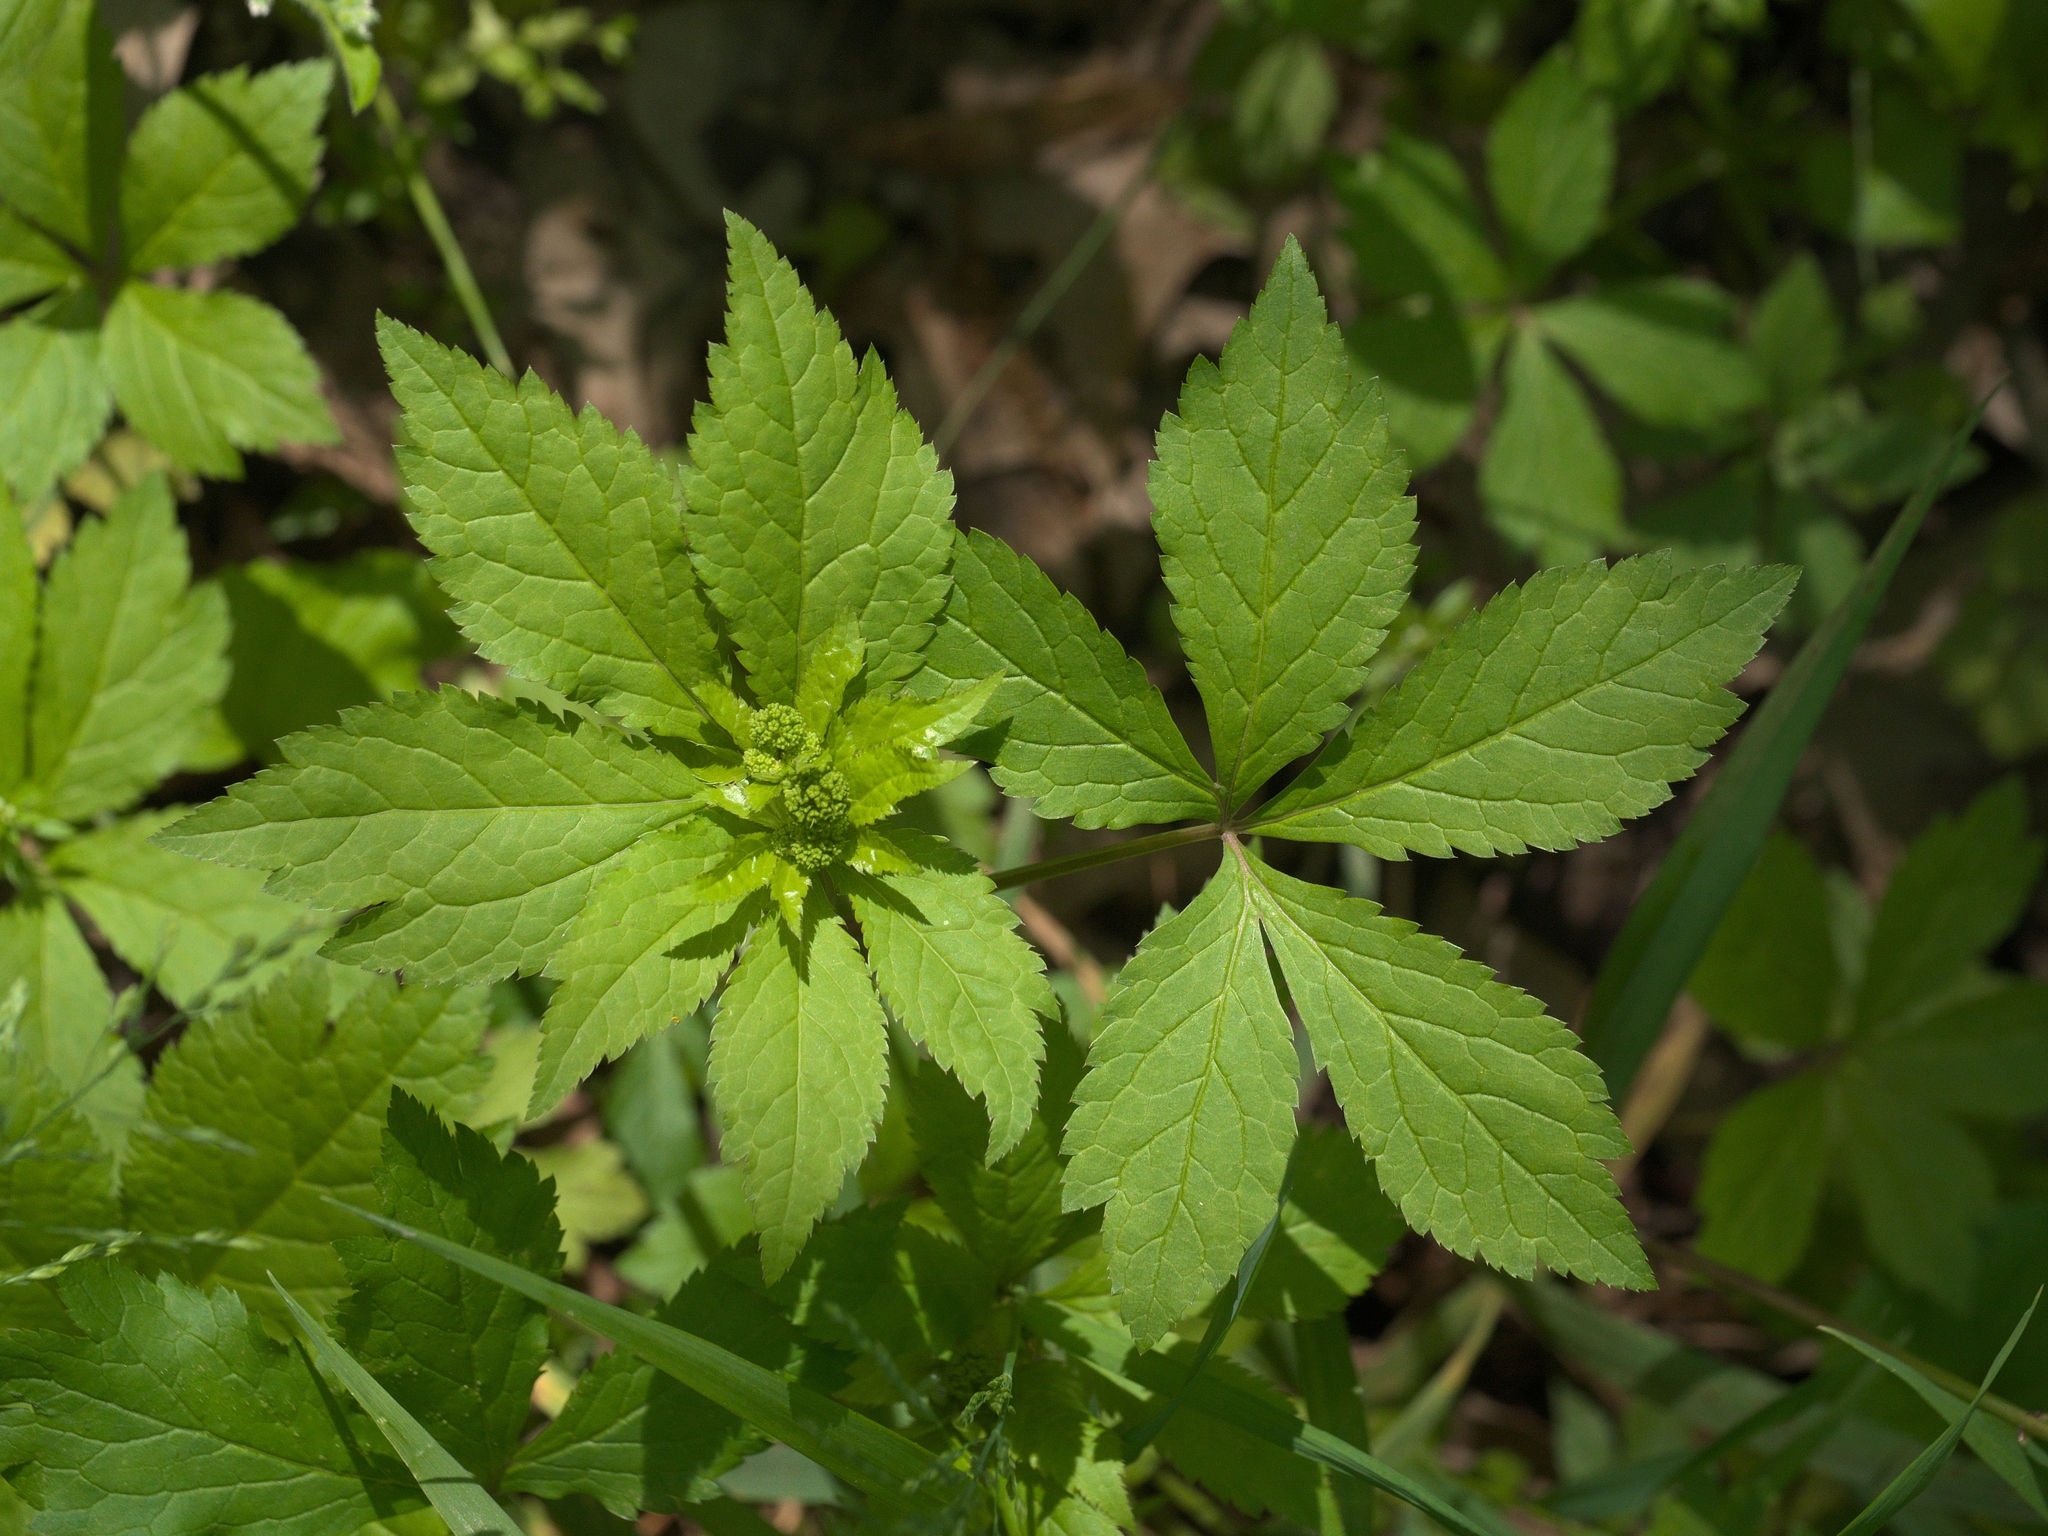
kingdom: Plantae
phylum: Tracheophyta
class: Magnoliopsida
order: Apiales
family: Apiaceae
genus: Sanicula
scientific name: Sanicula odorata
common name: Cluster sanicle
